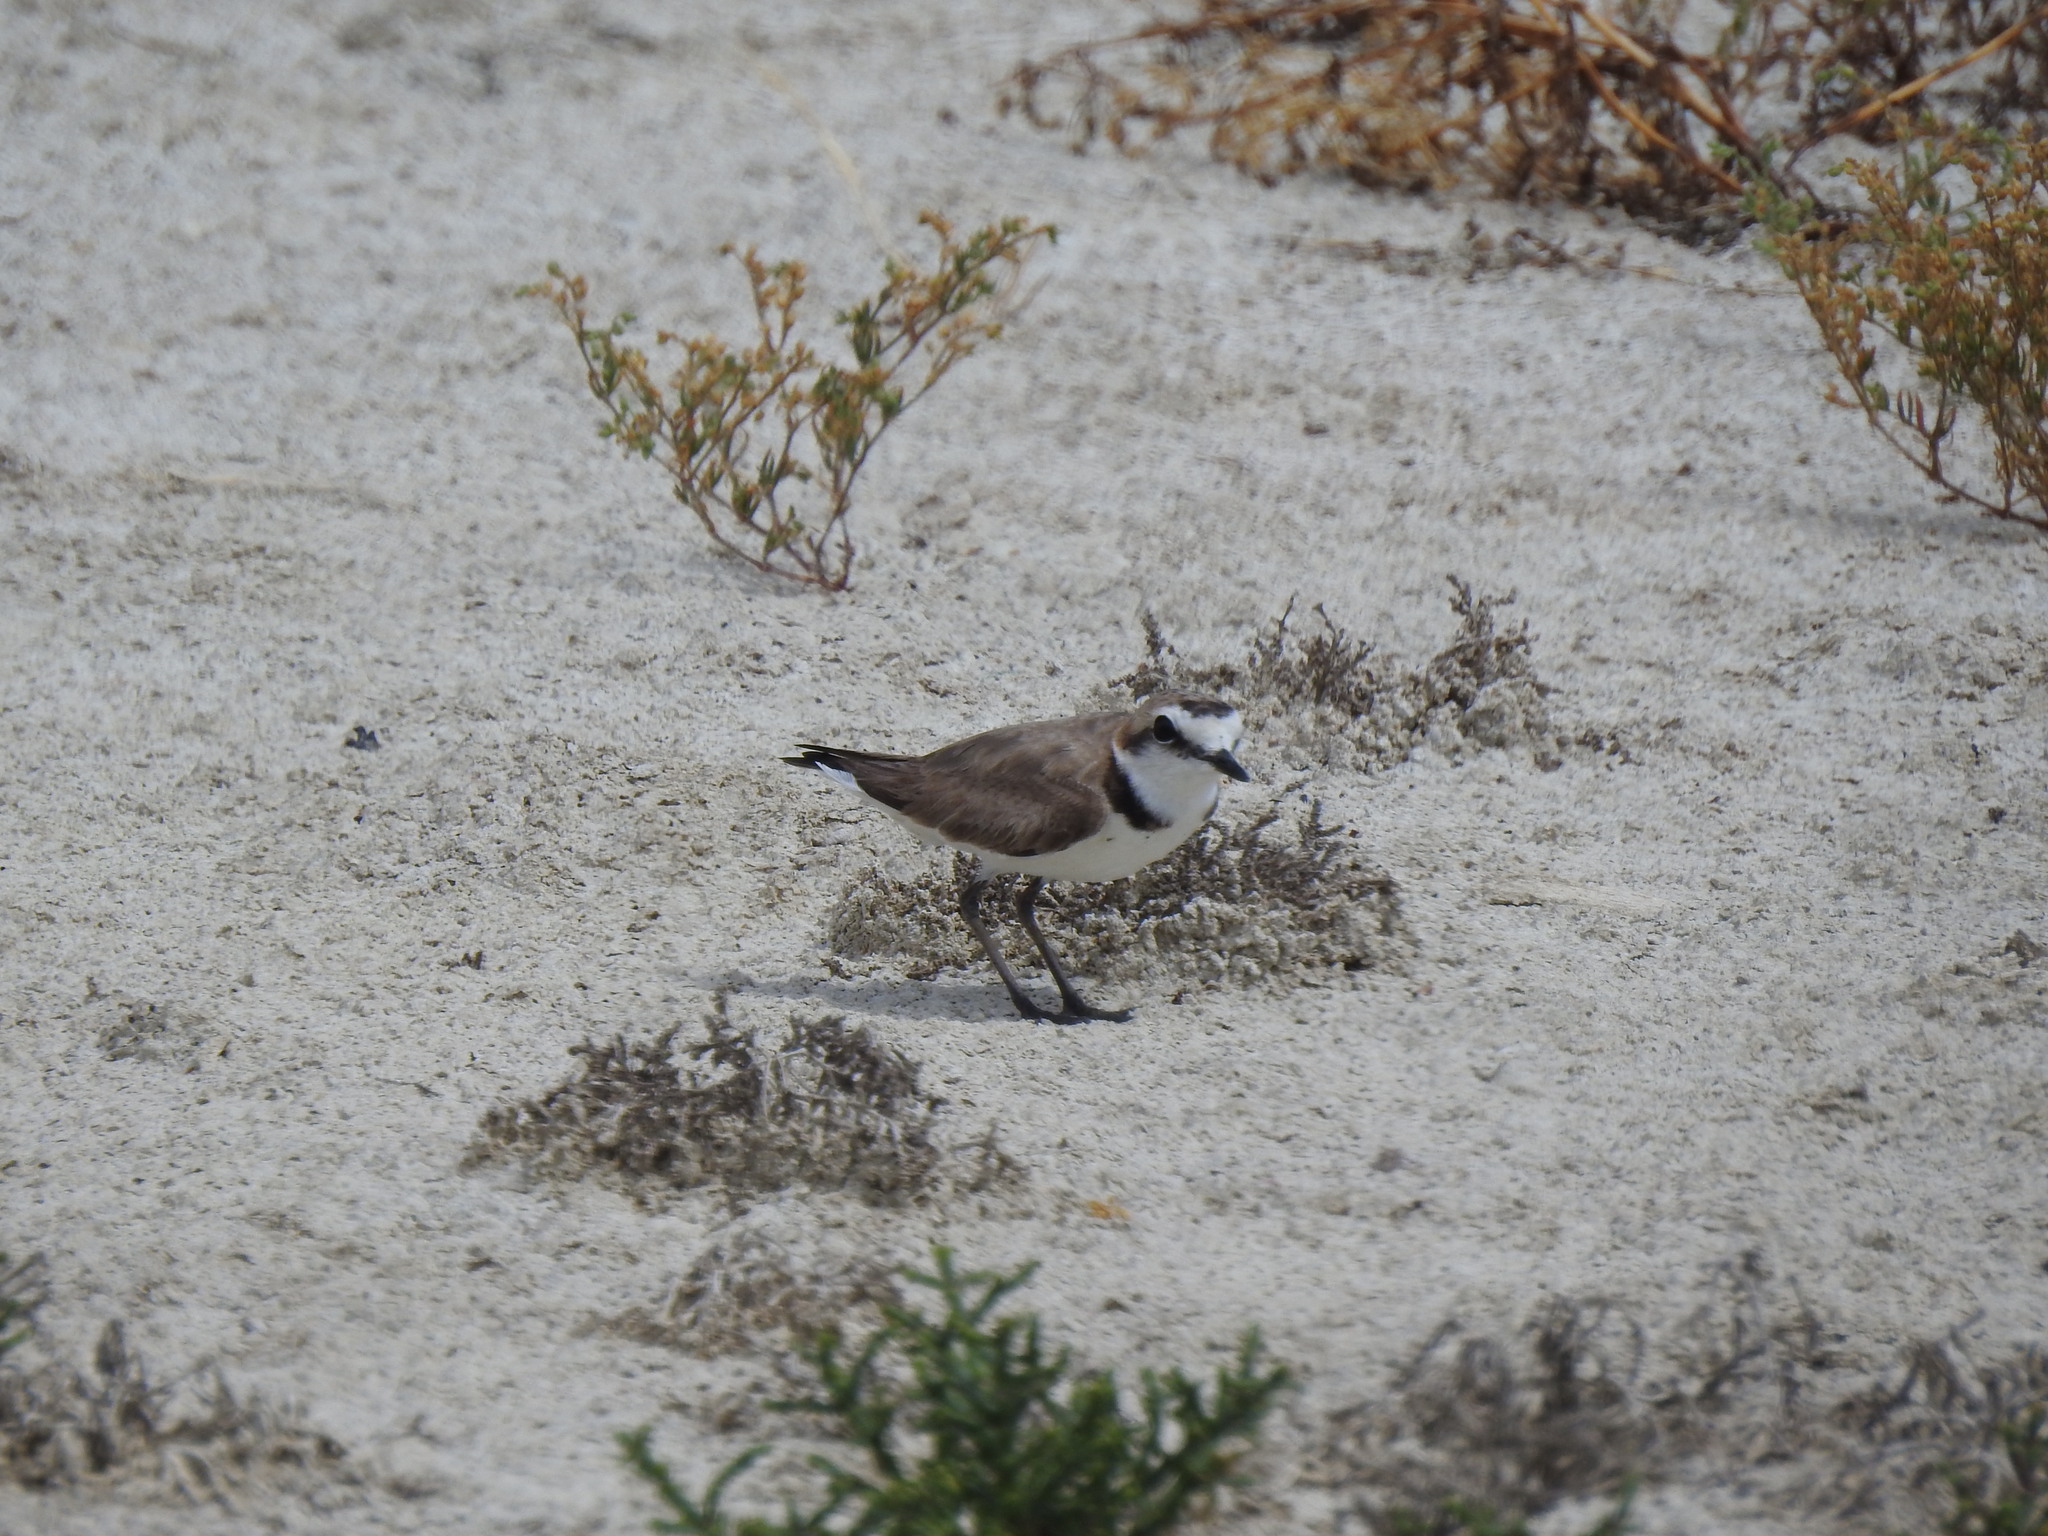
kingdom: Animalia
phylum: Chordata
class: Aves
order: Charadriiformes
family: Charadriidae
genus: Charadrius
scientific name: Charadrius alexandrinus
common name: Kentish plover
